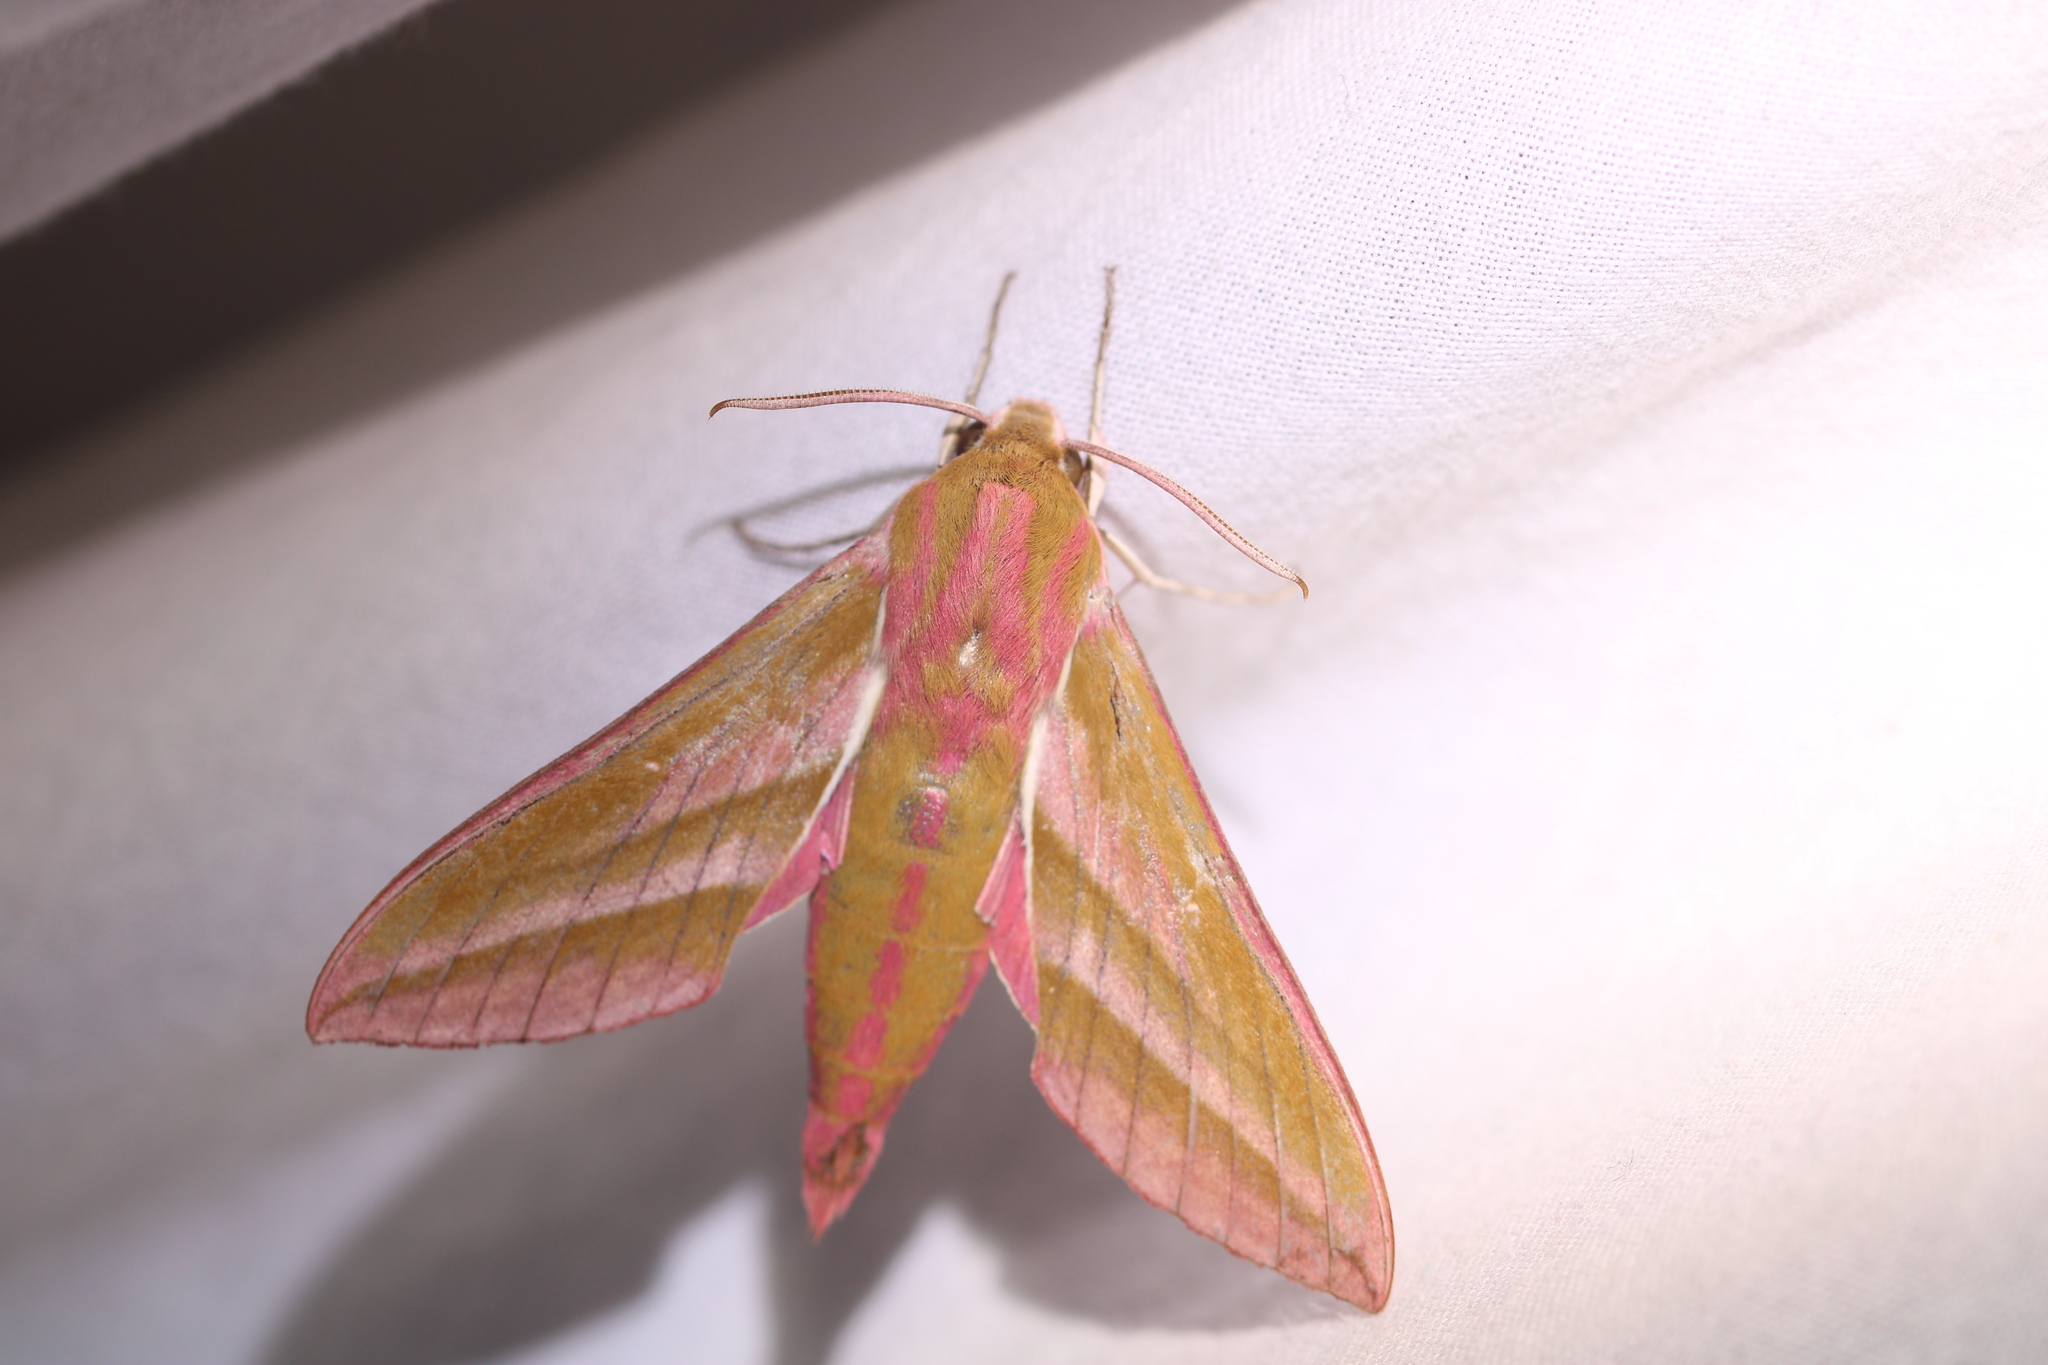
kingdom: Animalia
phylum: Arthropoda
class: Insecta
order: Lepidoptera
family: Sphingidae
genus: Deilephila
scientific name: Deilephila elpenor
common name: Elephant hawk-moth
